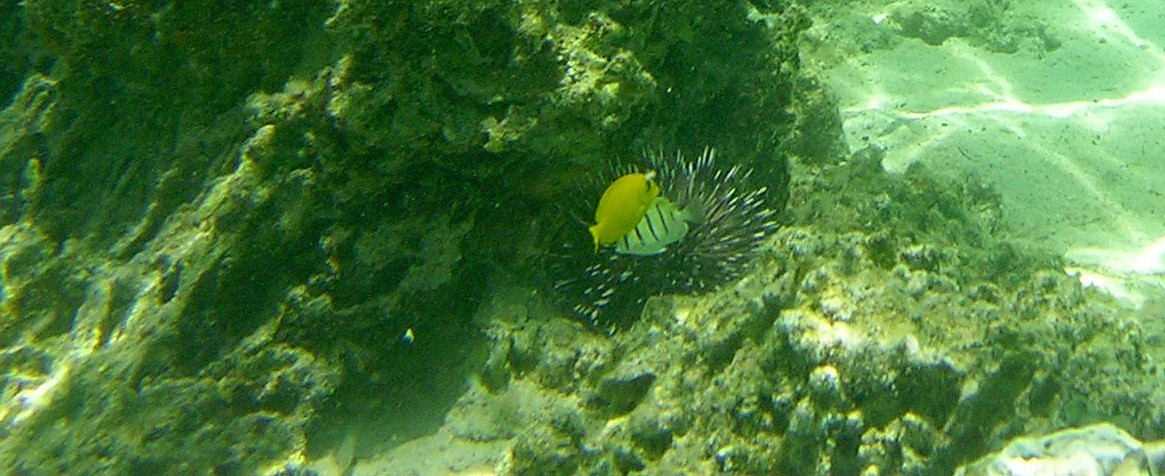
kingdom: Animalia
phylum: Chordata
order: Perciformes
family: Acanthuridae
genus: Acanthurus
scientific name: Acanthurus triostegus
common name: Convict surgeonfish
